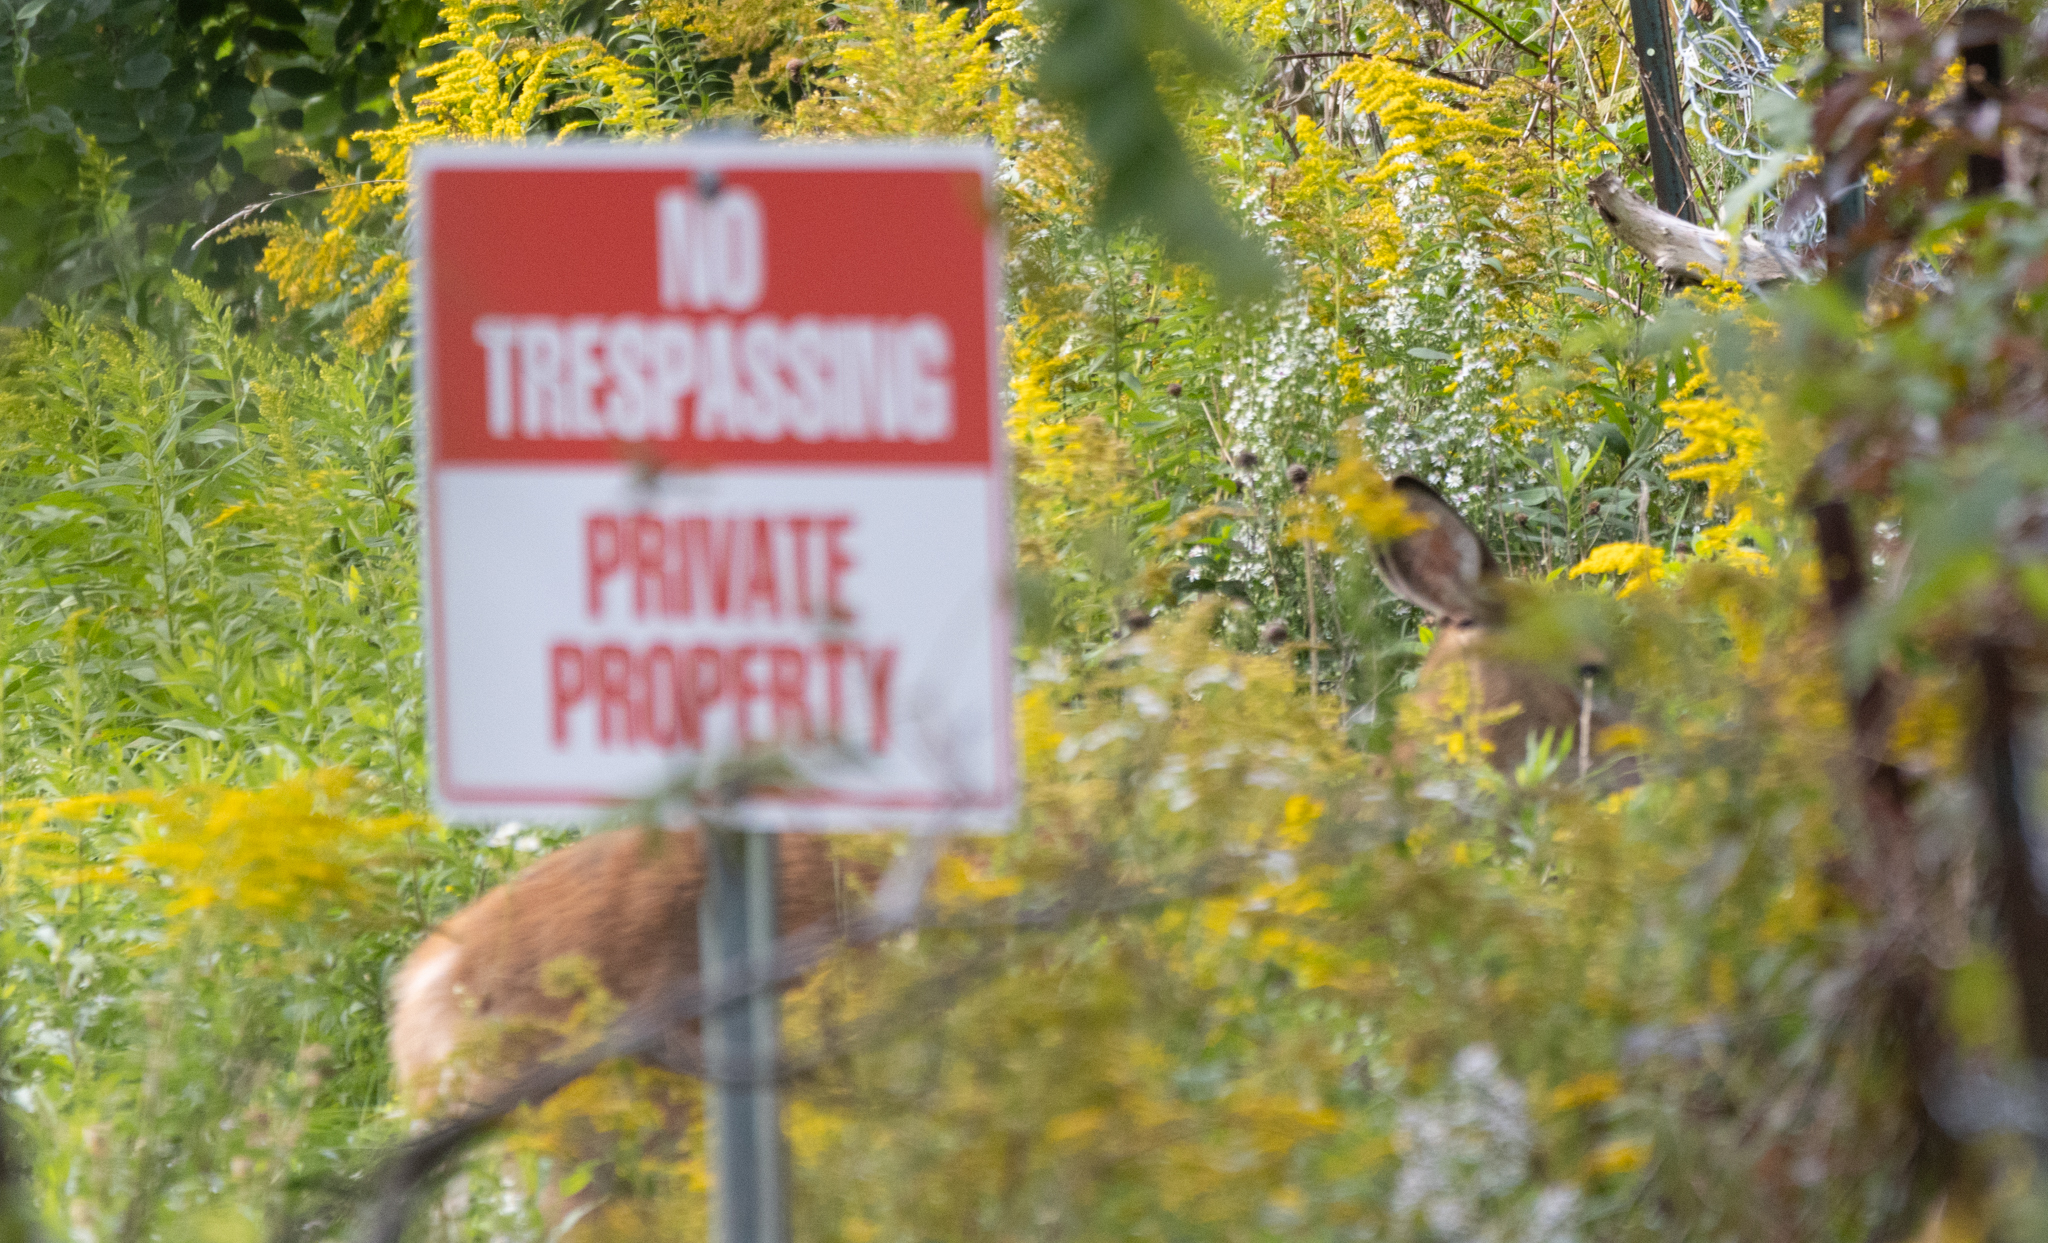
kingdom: Animalia
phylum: Chordata
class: Mammalia
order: Artiodactyla
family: Cervidae
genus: Odocoileus
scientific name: Odocoileus virginianus
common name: White-tailed deer
